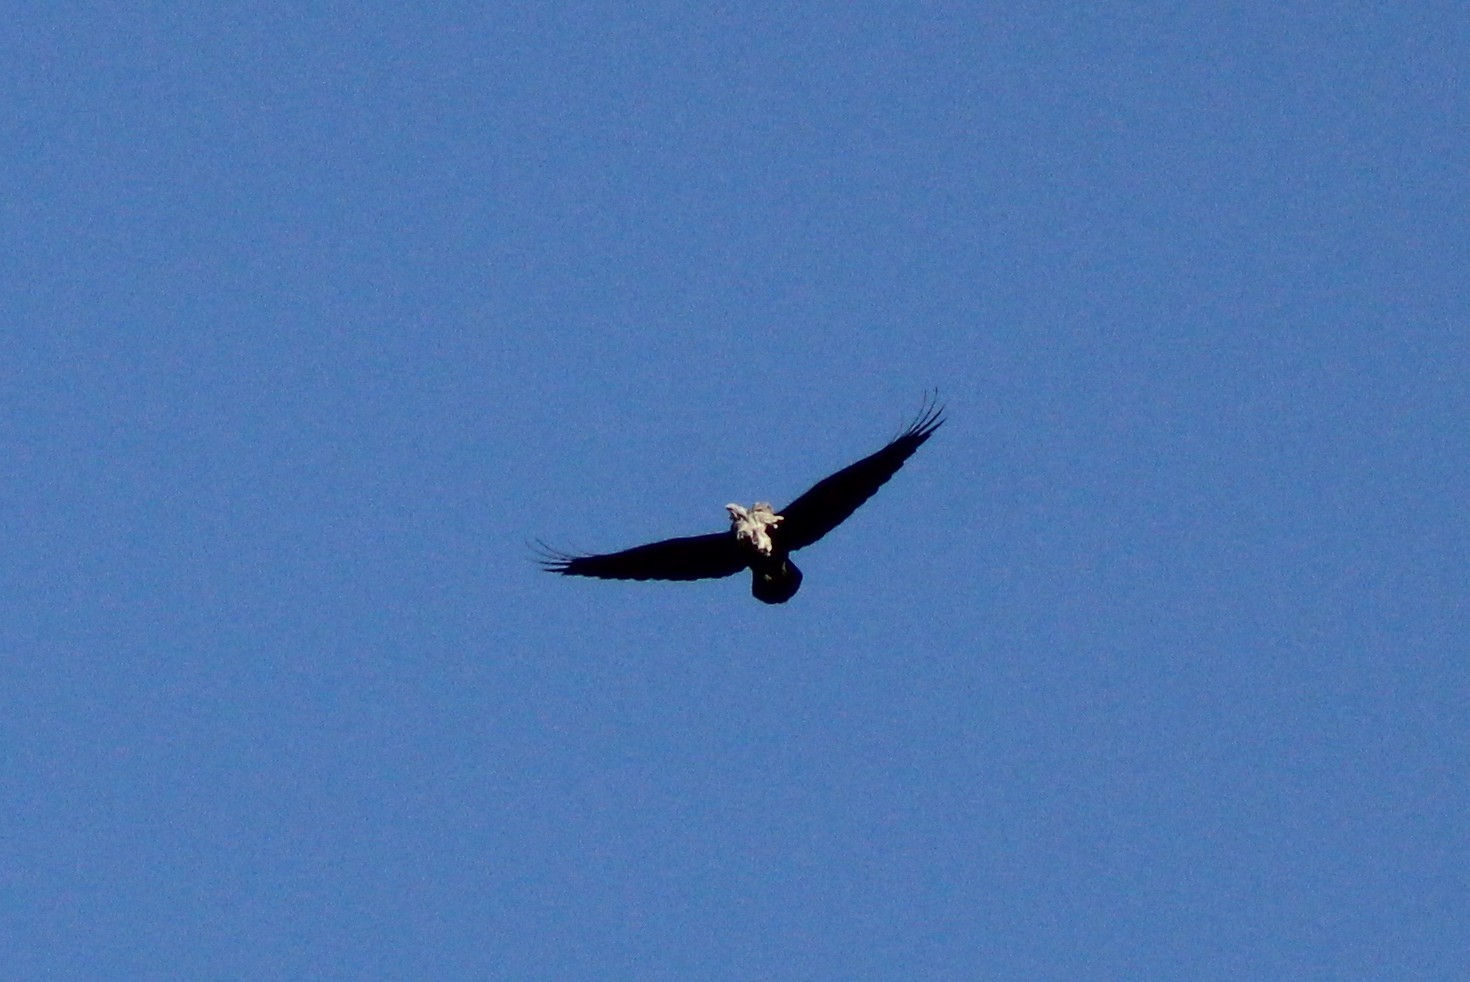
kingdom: Animalia
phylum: Chordata
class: Aves
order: Passeriformes
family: Corvidae
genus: Corvus
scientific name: Corvus corax
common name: Common raven
